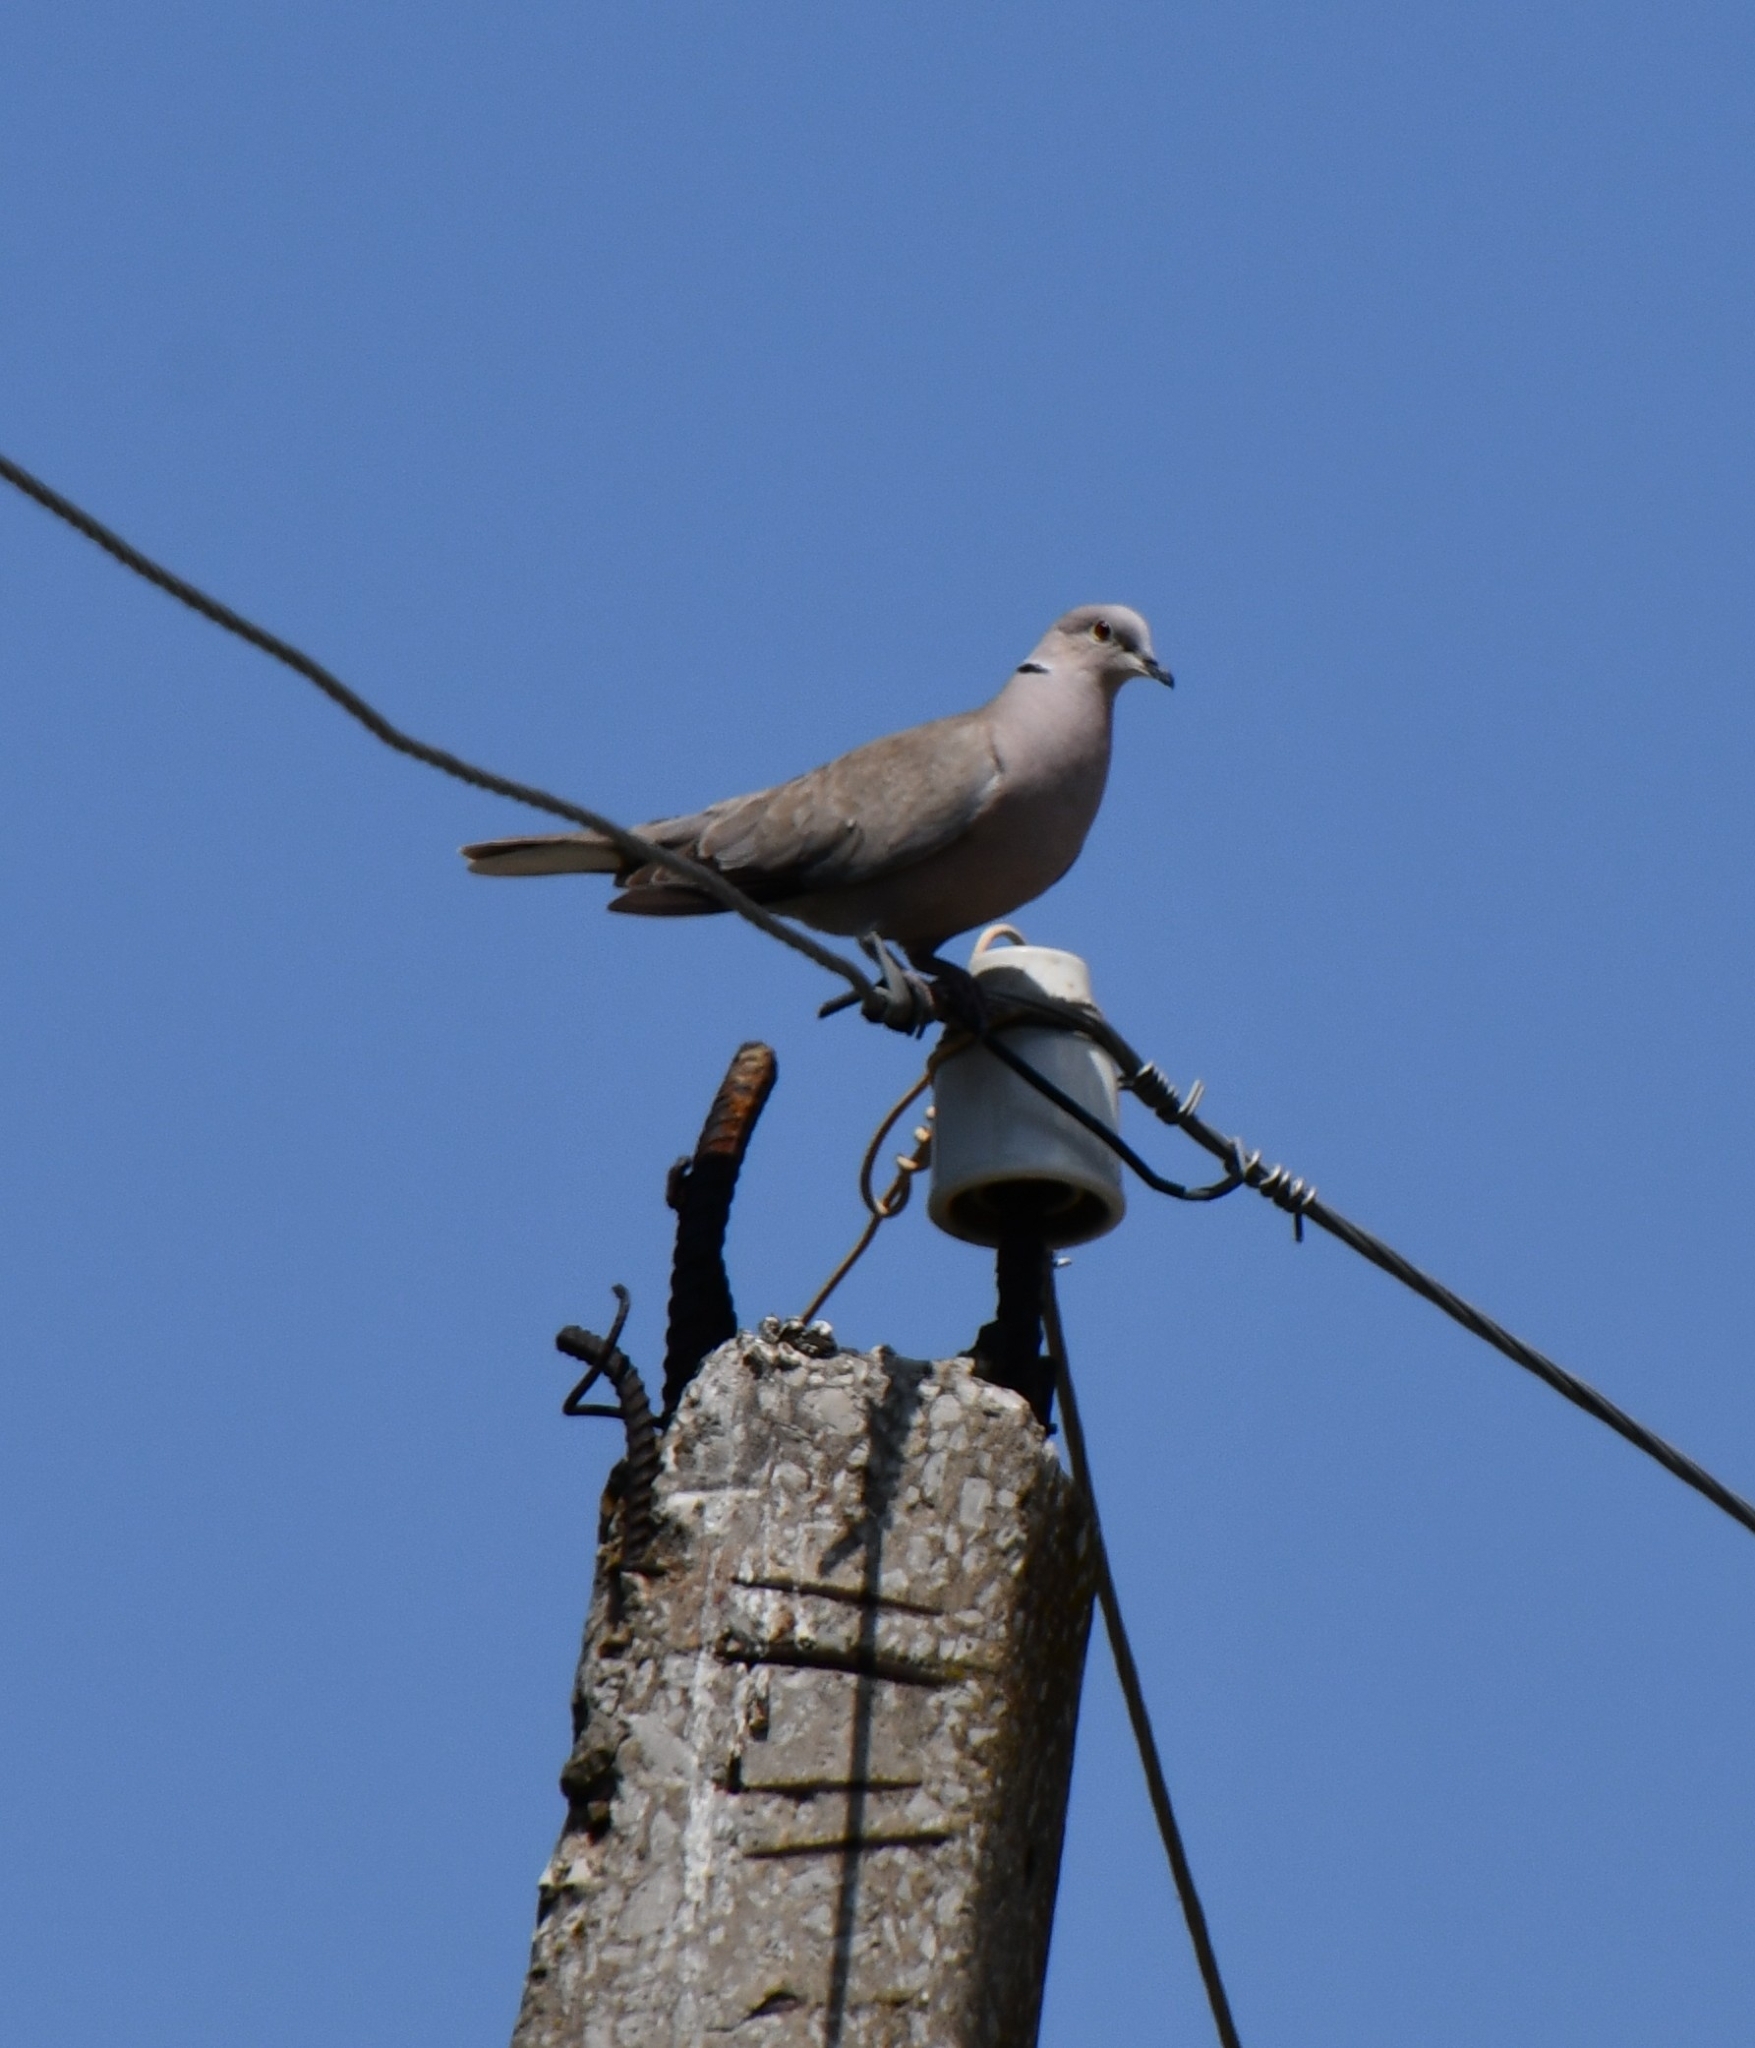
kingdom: Animalia
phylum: Chordata
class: Aves
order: Columbiformes
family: Columbidae
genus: Streptopelia
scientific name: Streptopelia decaocto
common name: Eurasian collared dove
